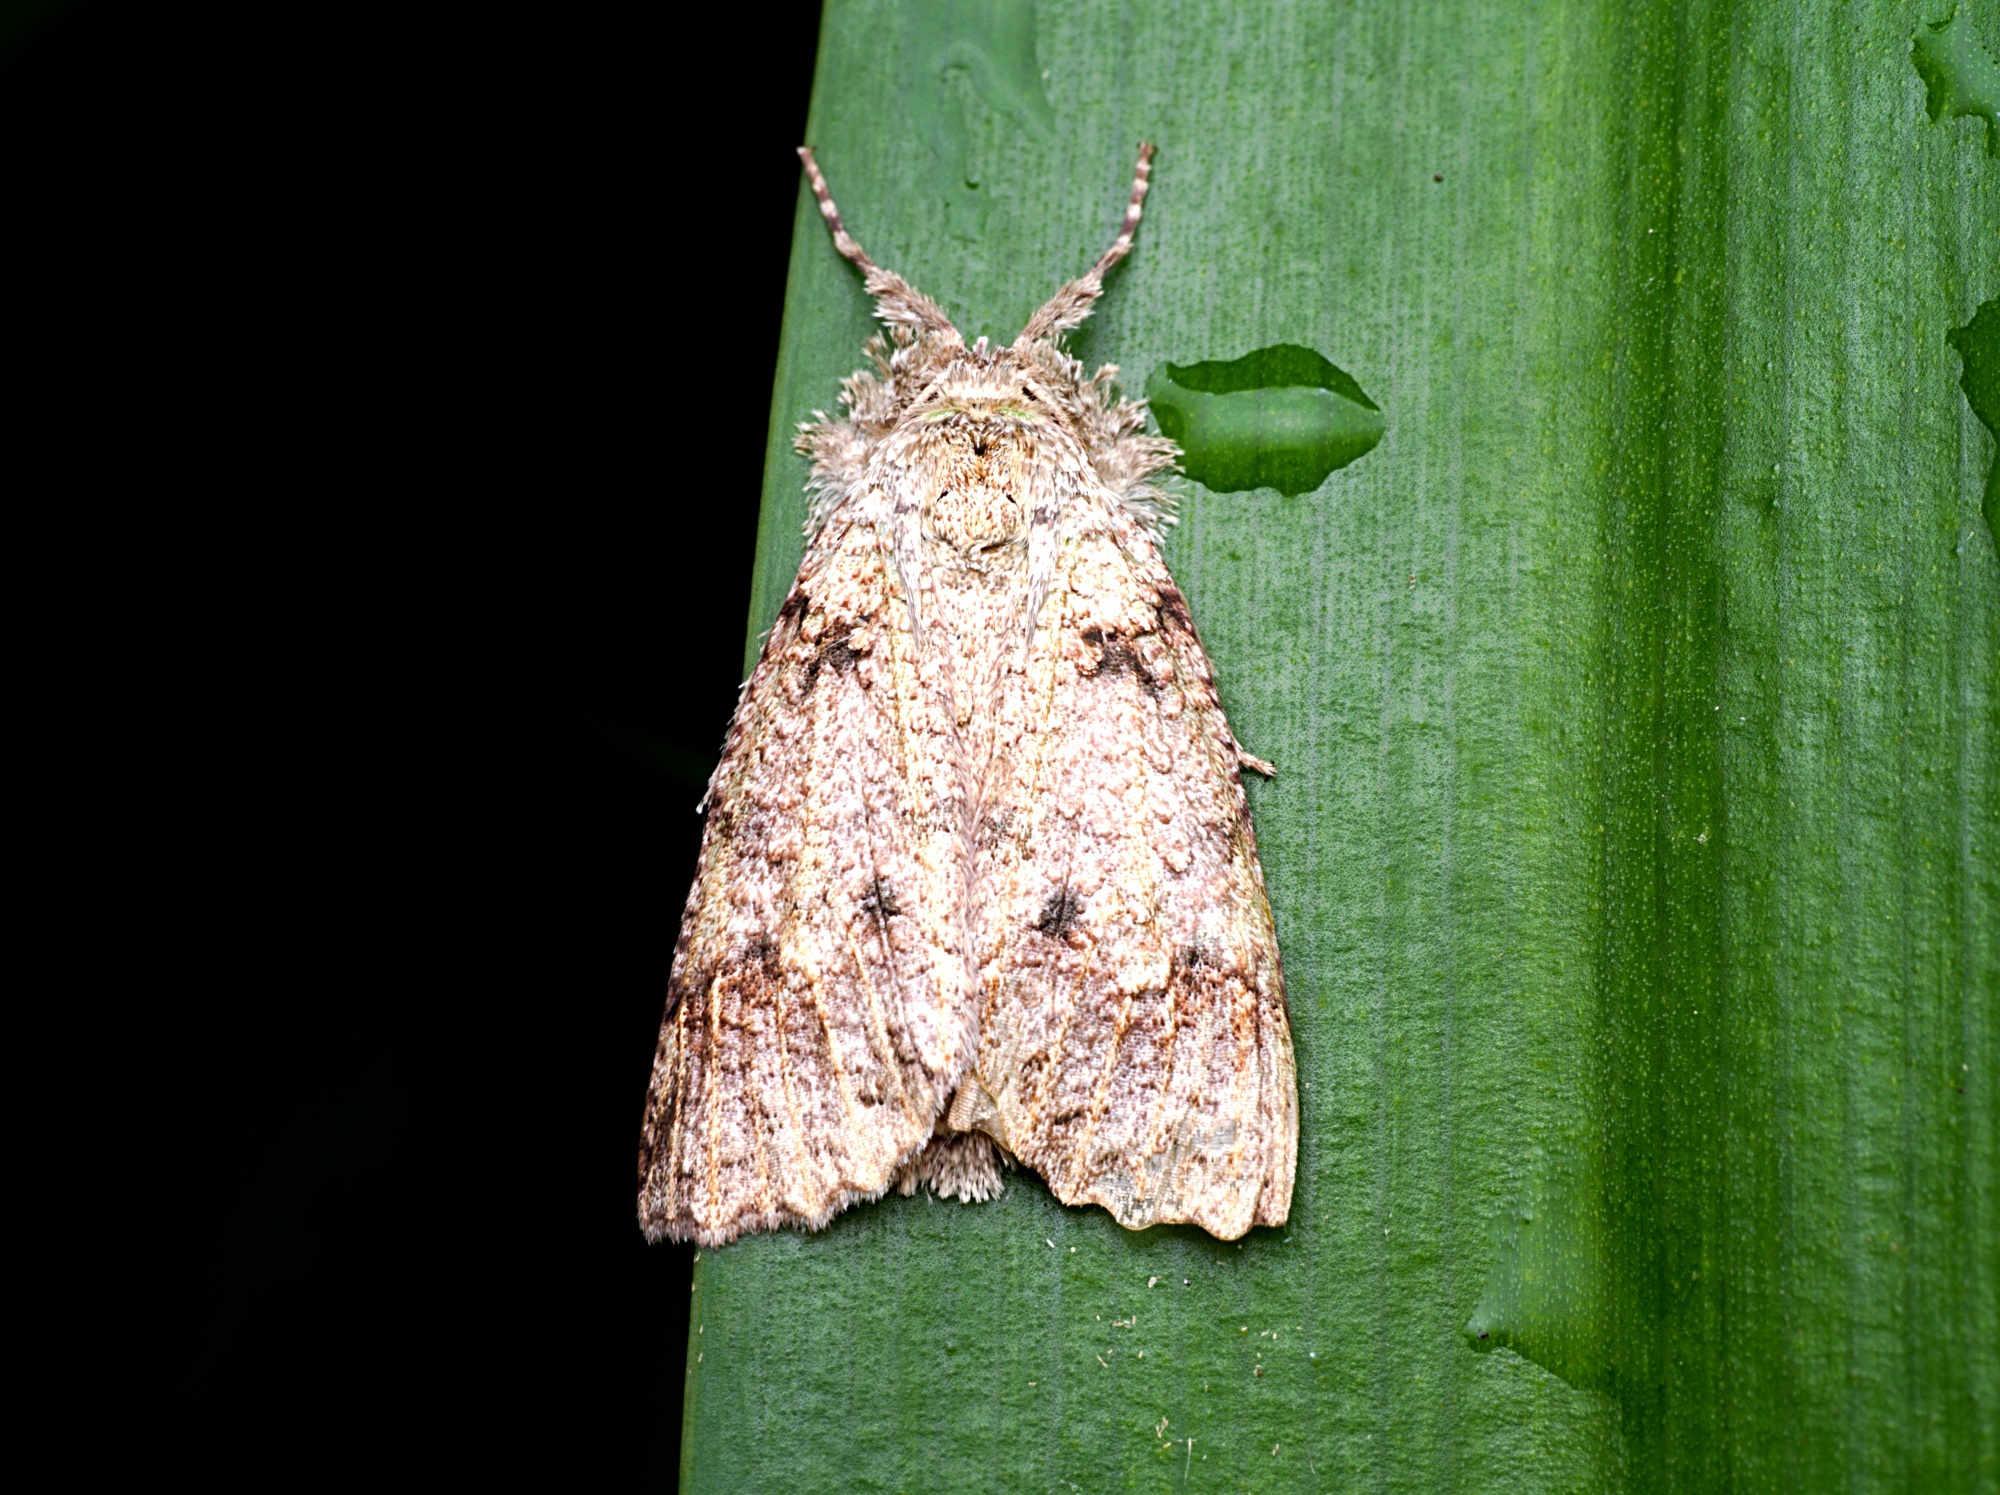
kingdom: Animalia
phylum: Arthropoda
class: Insecta
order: Lepidoptera
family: Geometridae
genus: Declana
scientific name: Declana floccosa
